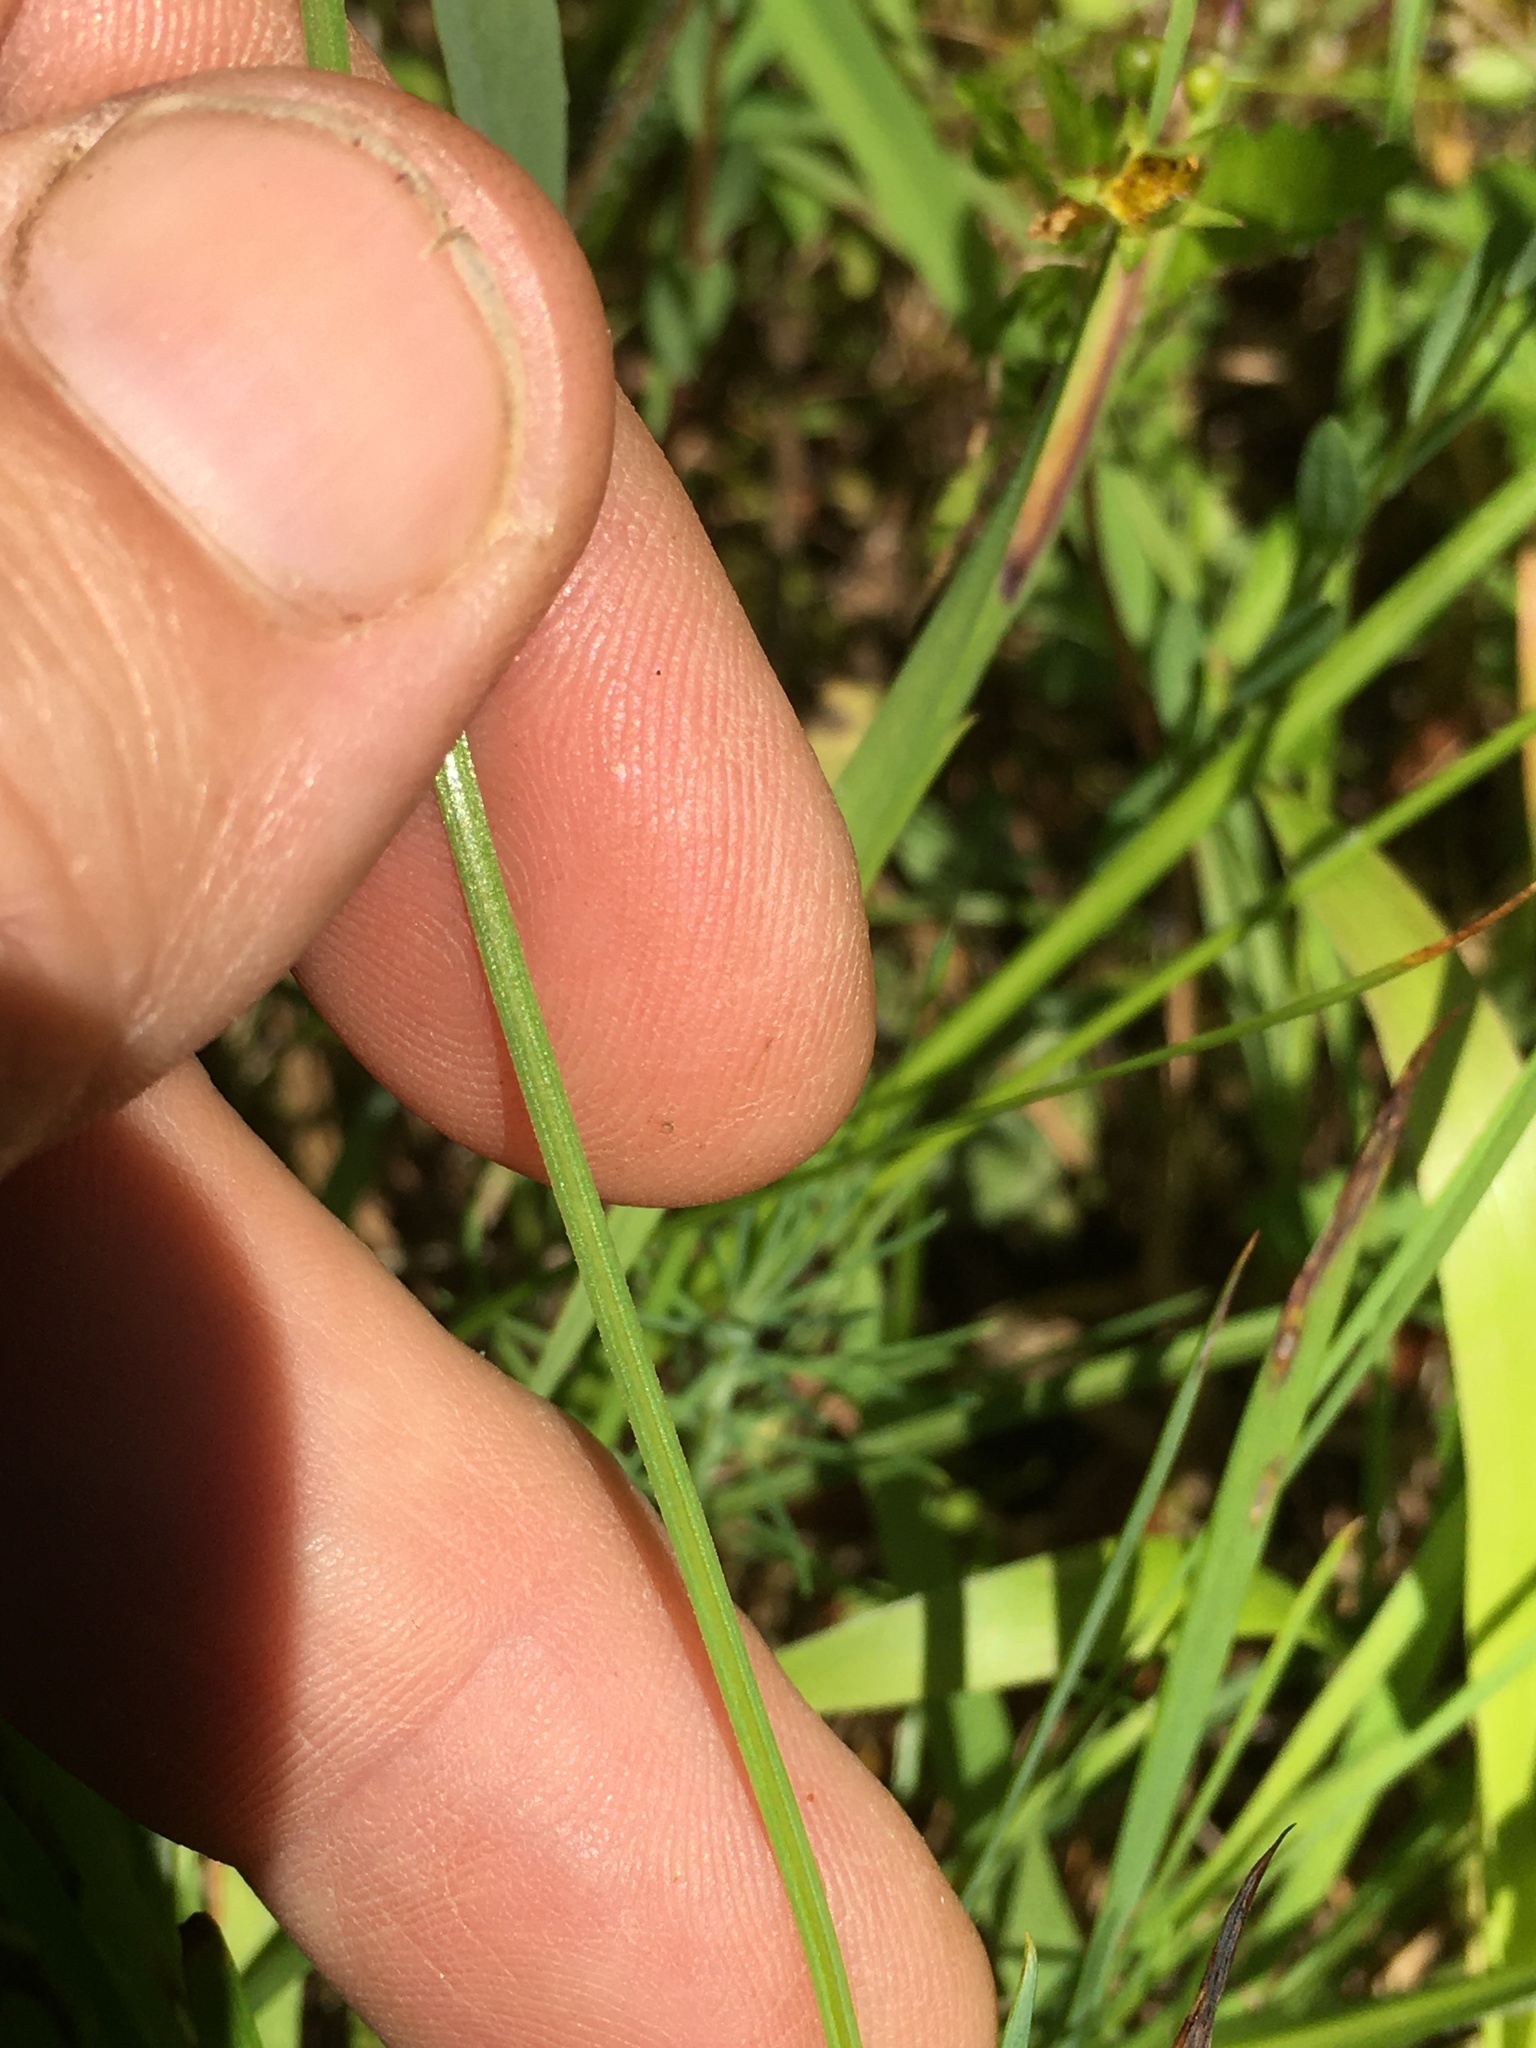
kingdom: Plantae
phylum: Tracheophyta
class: Liliopsida
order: Asparagales
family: Iridaceae
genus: Sisyrinchium
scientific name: Sisyrinchium mucronatum
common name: Eastern blue-eyed-grass
